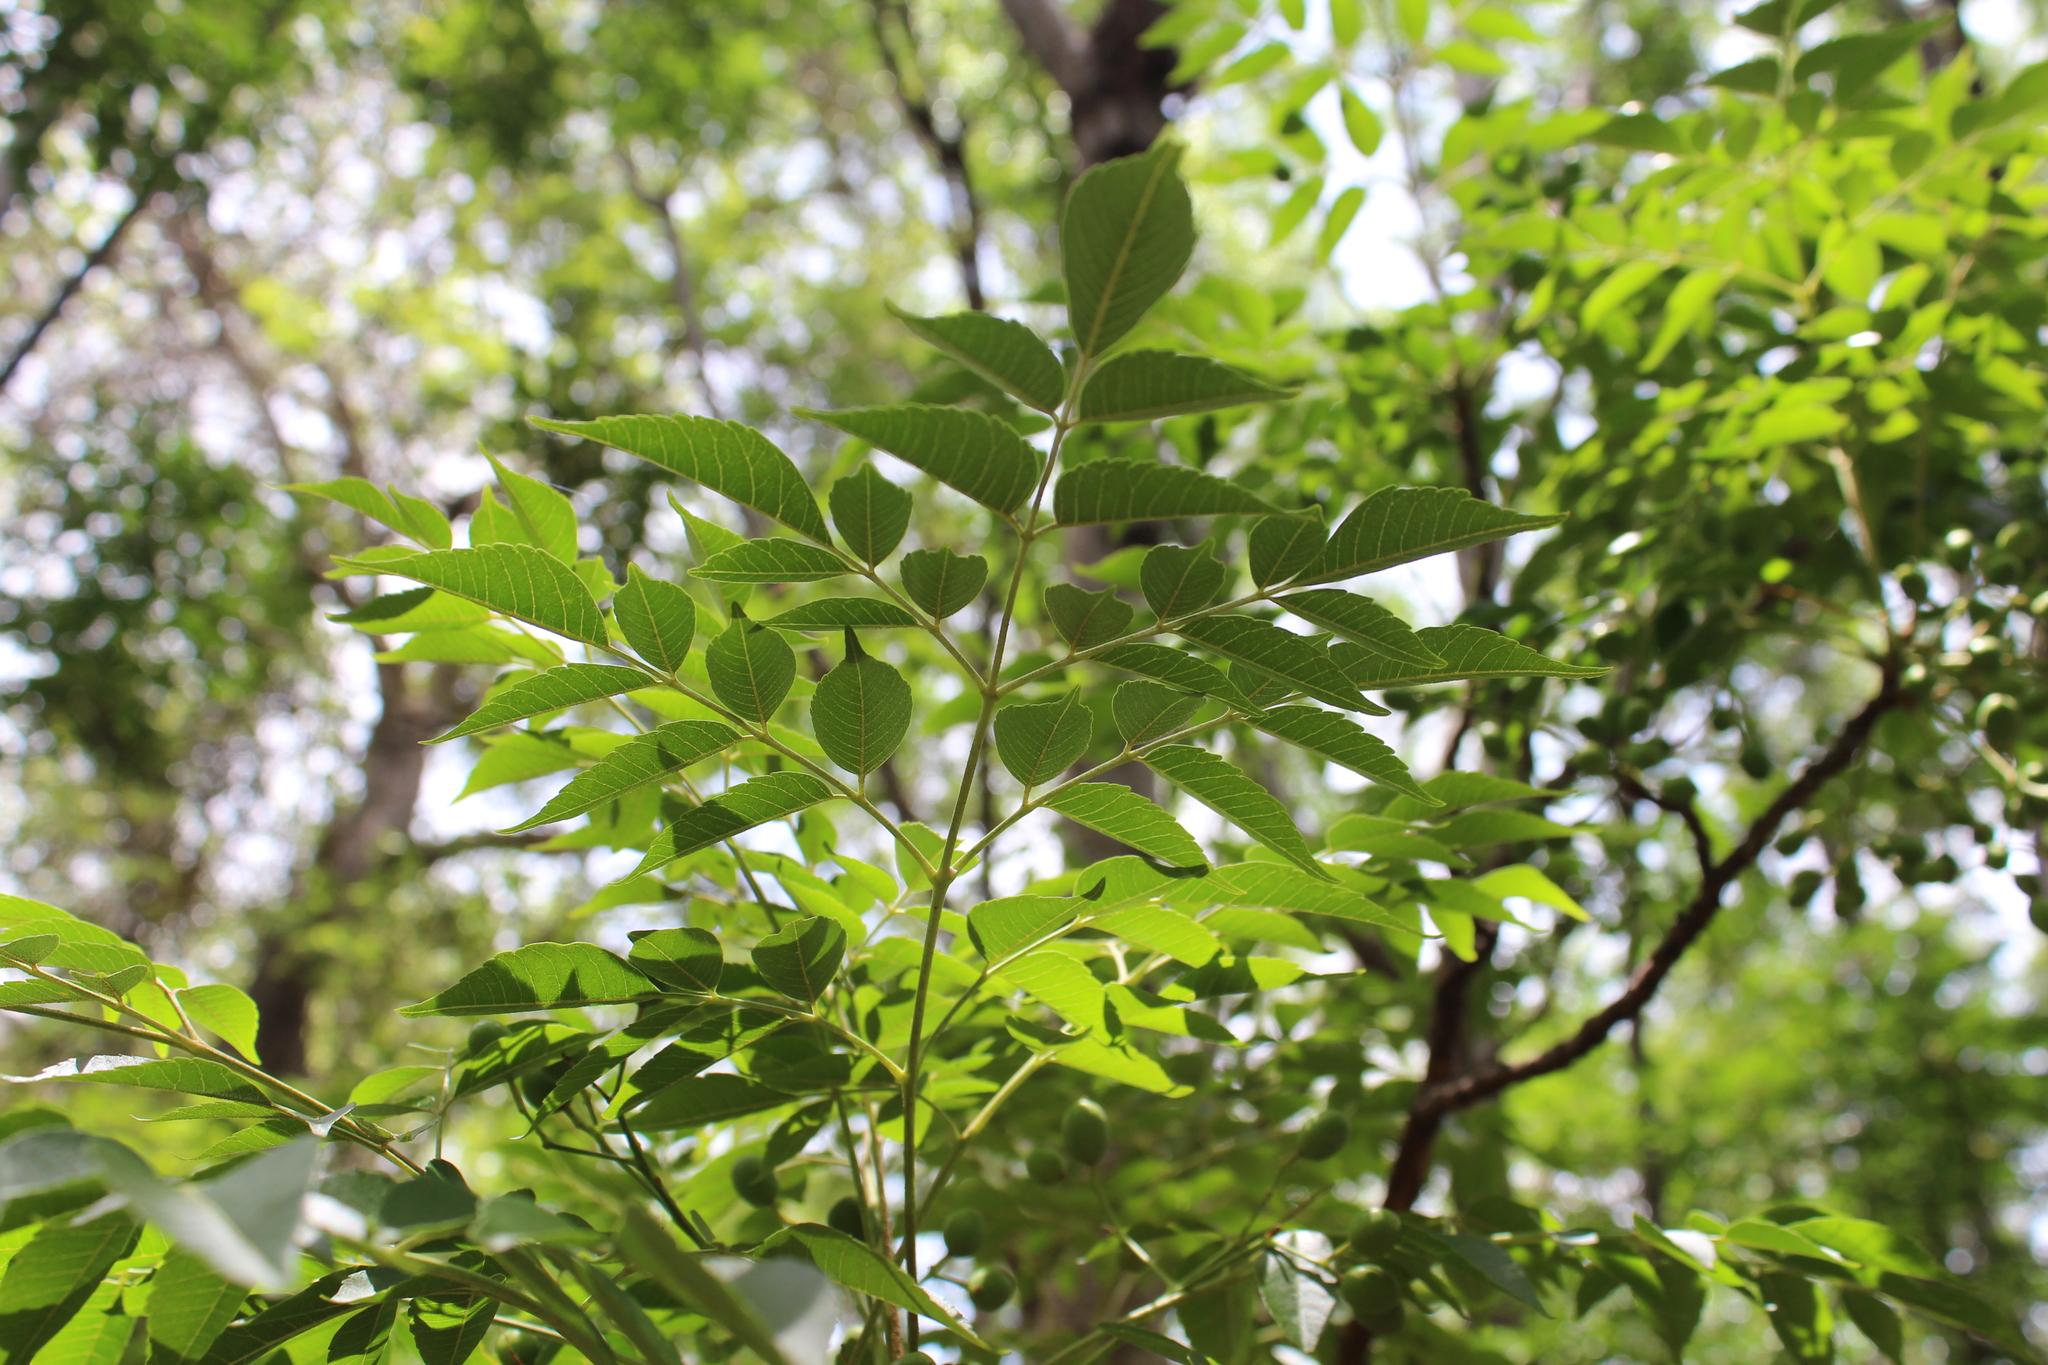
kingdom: Plantae
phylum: Tracheophyta
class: Magnoliopsida
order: Sapindales
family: Meliaceae
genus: Melia
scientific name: Melia azedarach
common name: Chinaberrytree
